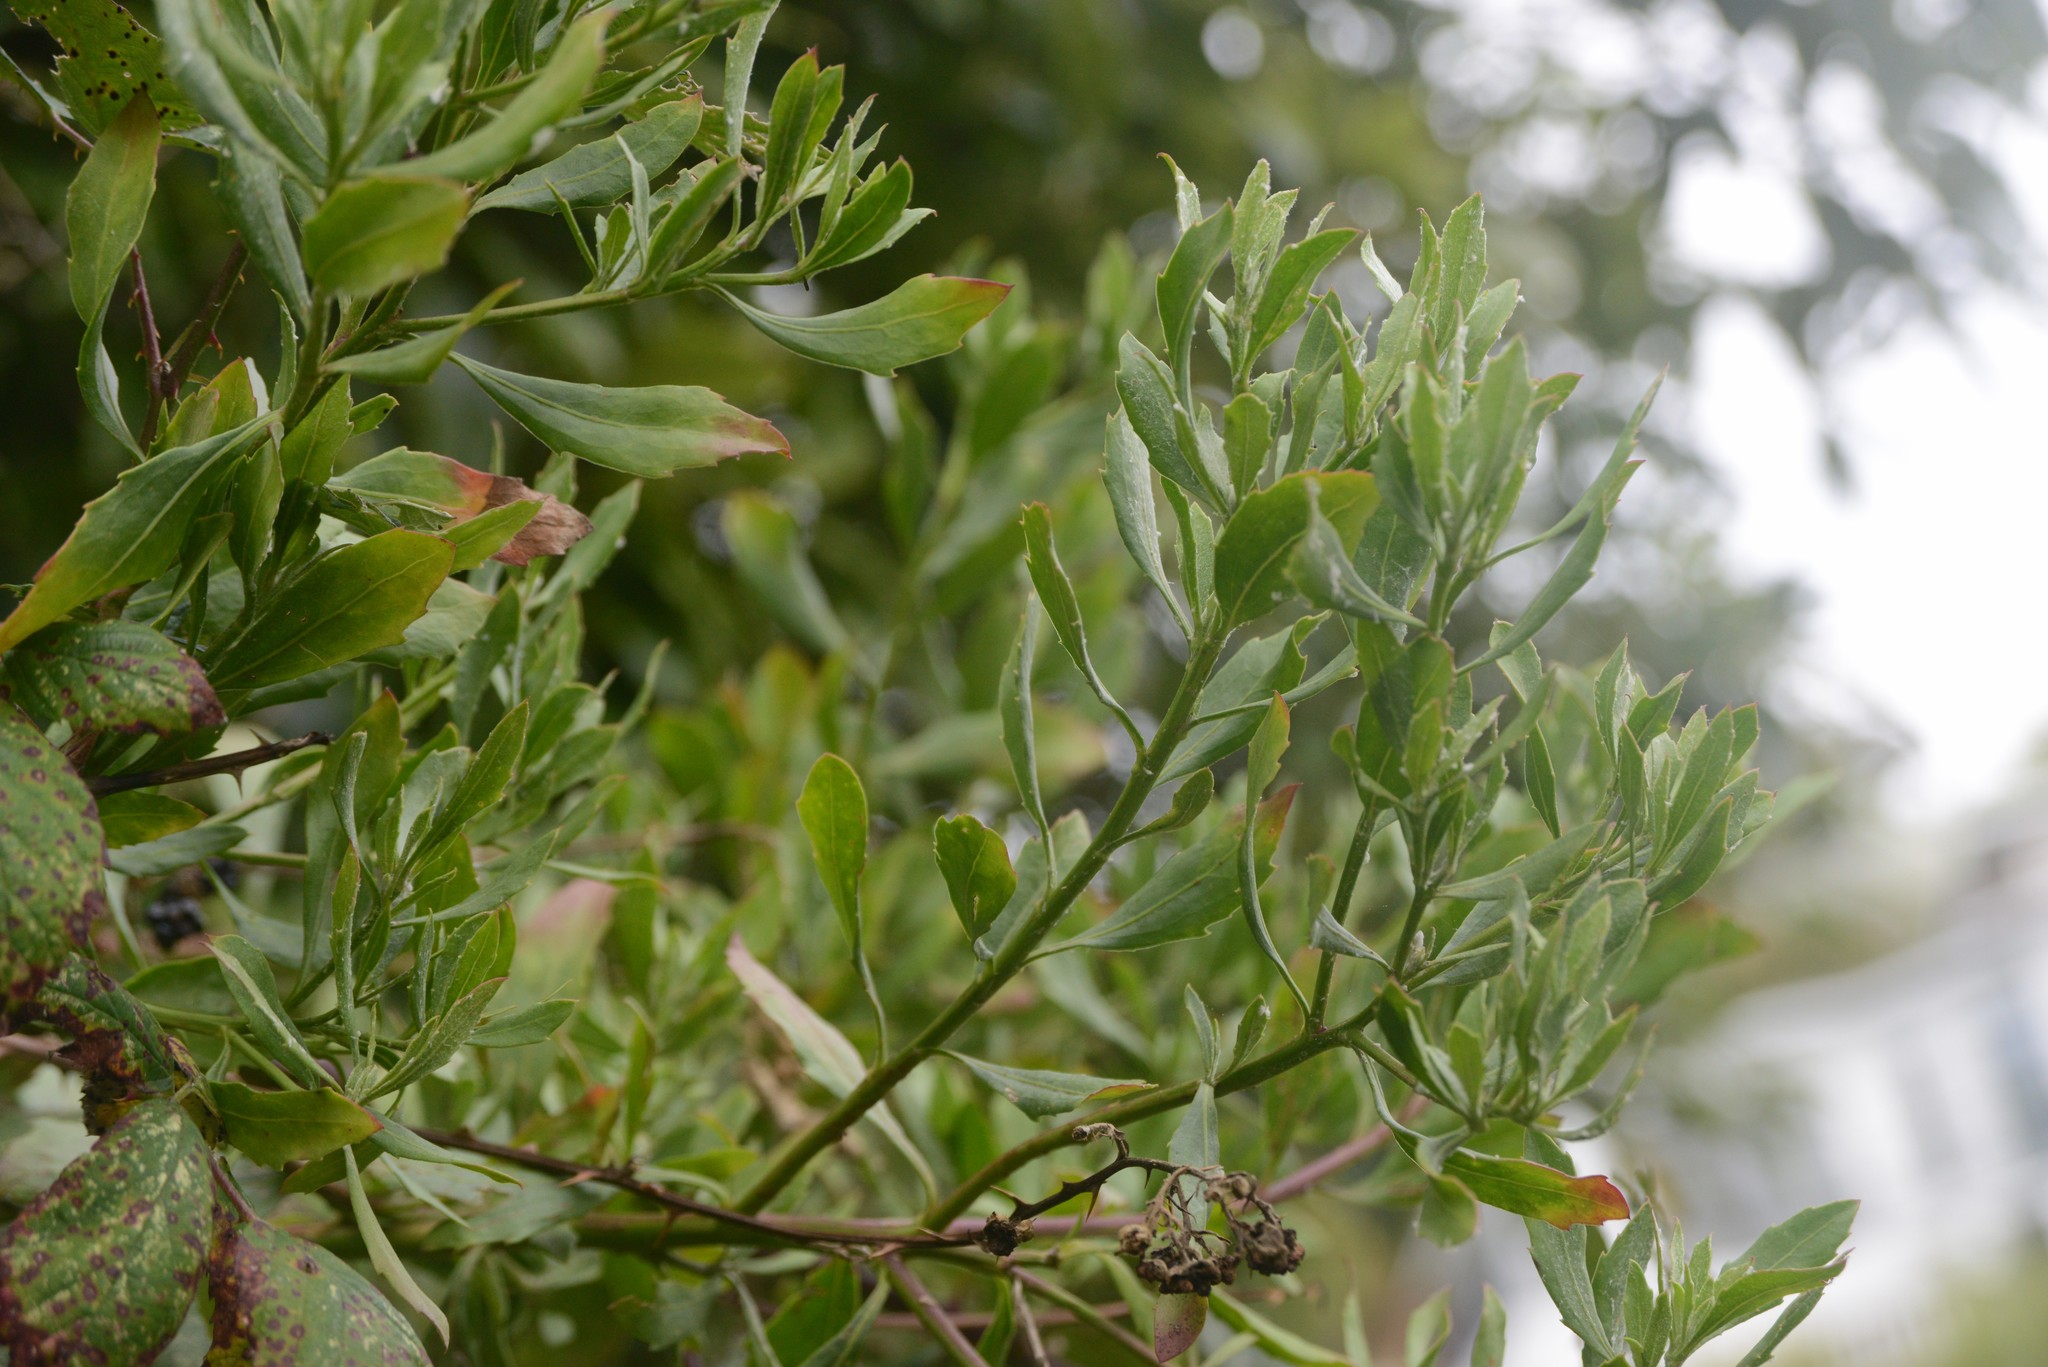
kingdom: Plantae
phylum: Tracheophyta
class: Magnoliopsida
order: Asterales
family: Asteraceae
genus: Osteospermum
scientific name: Osteospermum moniliferum
